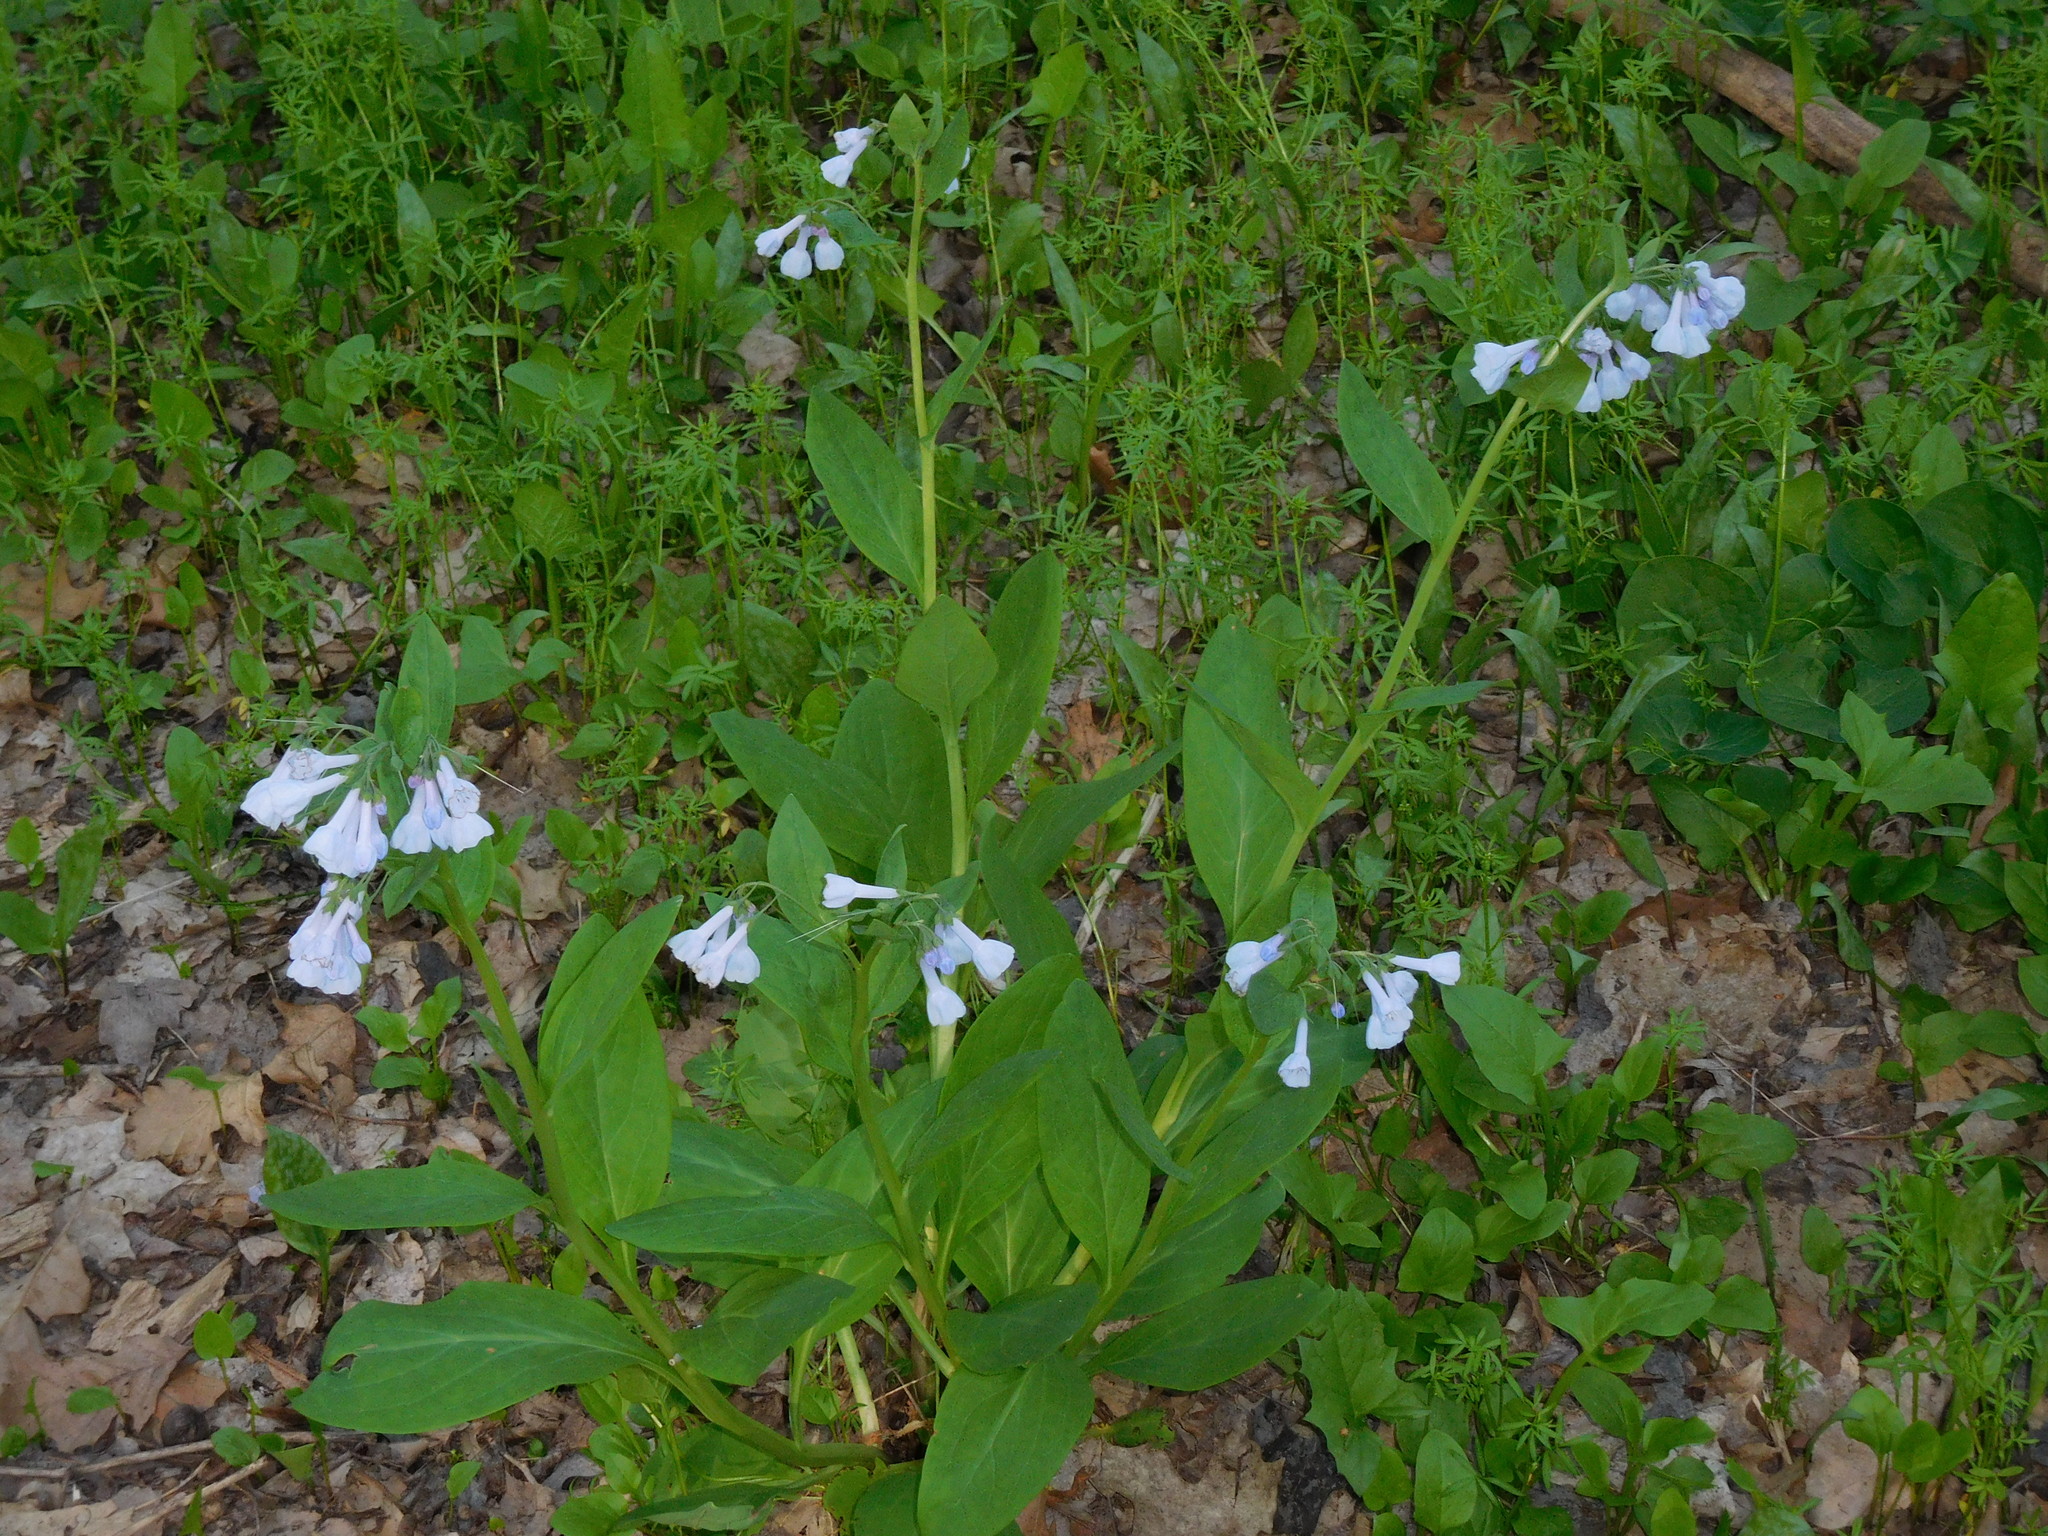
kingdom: Plantae
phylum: Tracheophyta
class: Magnoliopsida
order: Boraginales
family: Boraginaceae
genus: Mertensia
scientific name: Mertensia virginica
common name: Virginia bluebells
